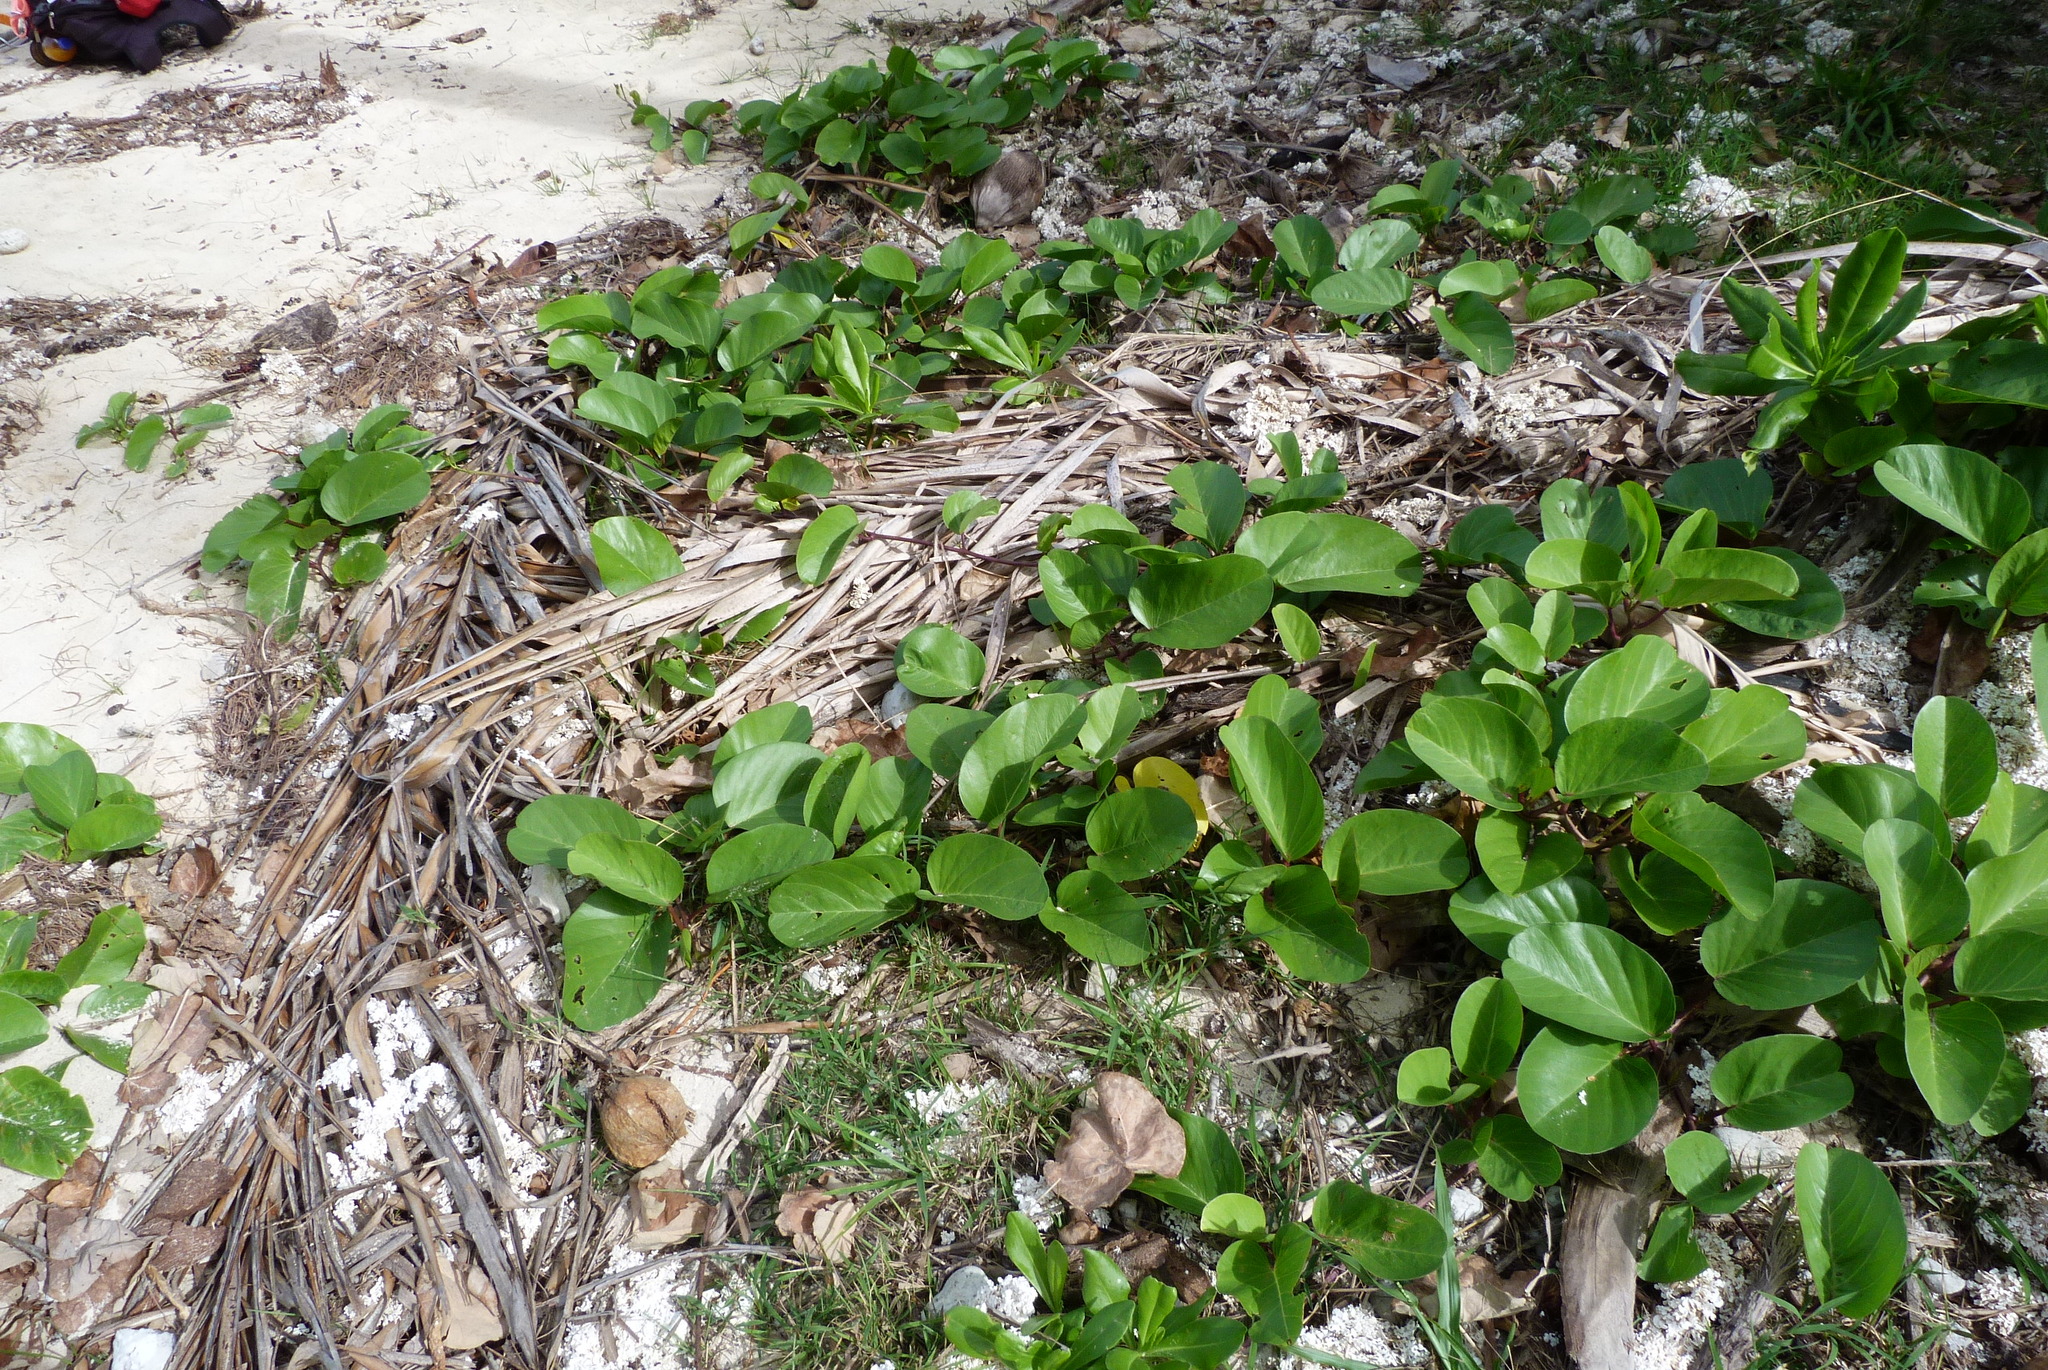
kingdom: Plantae
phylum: Tracheophyta
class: Magnoliopsida
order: Solanales
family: Convolvulaceae
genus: Ipomoea
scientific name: Ipomoea pes-caprae
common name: Beach morning glory
